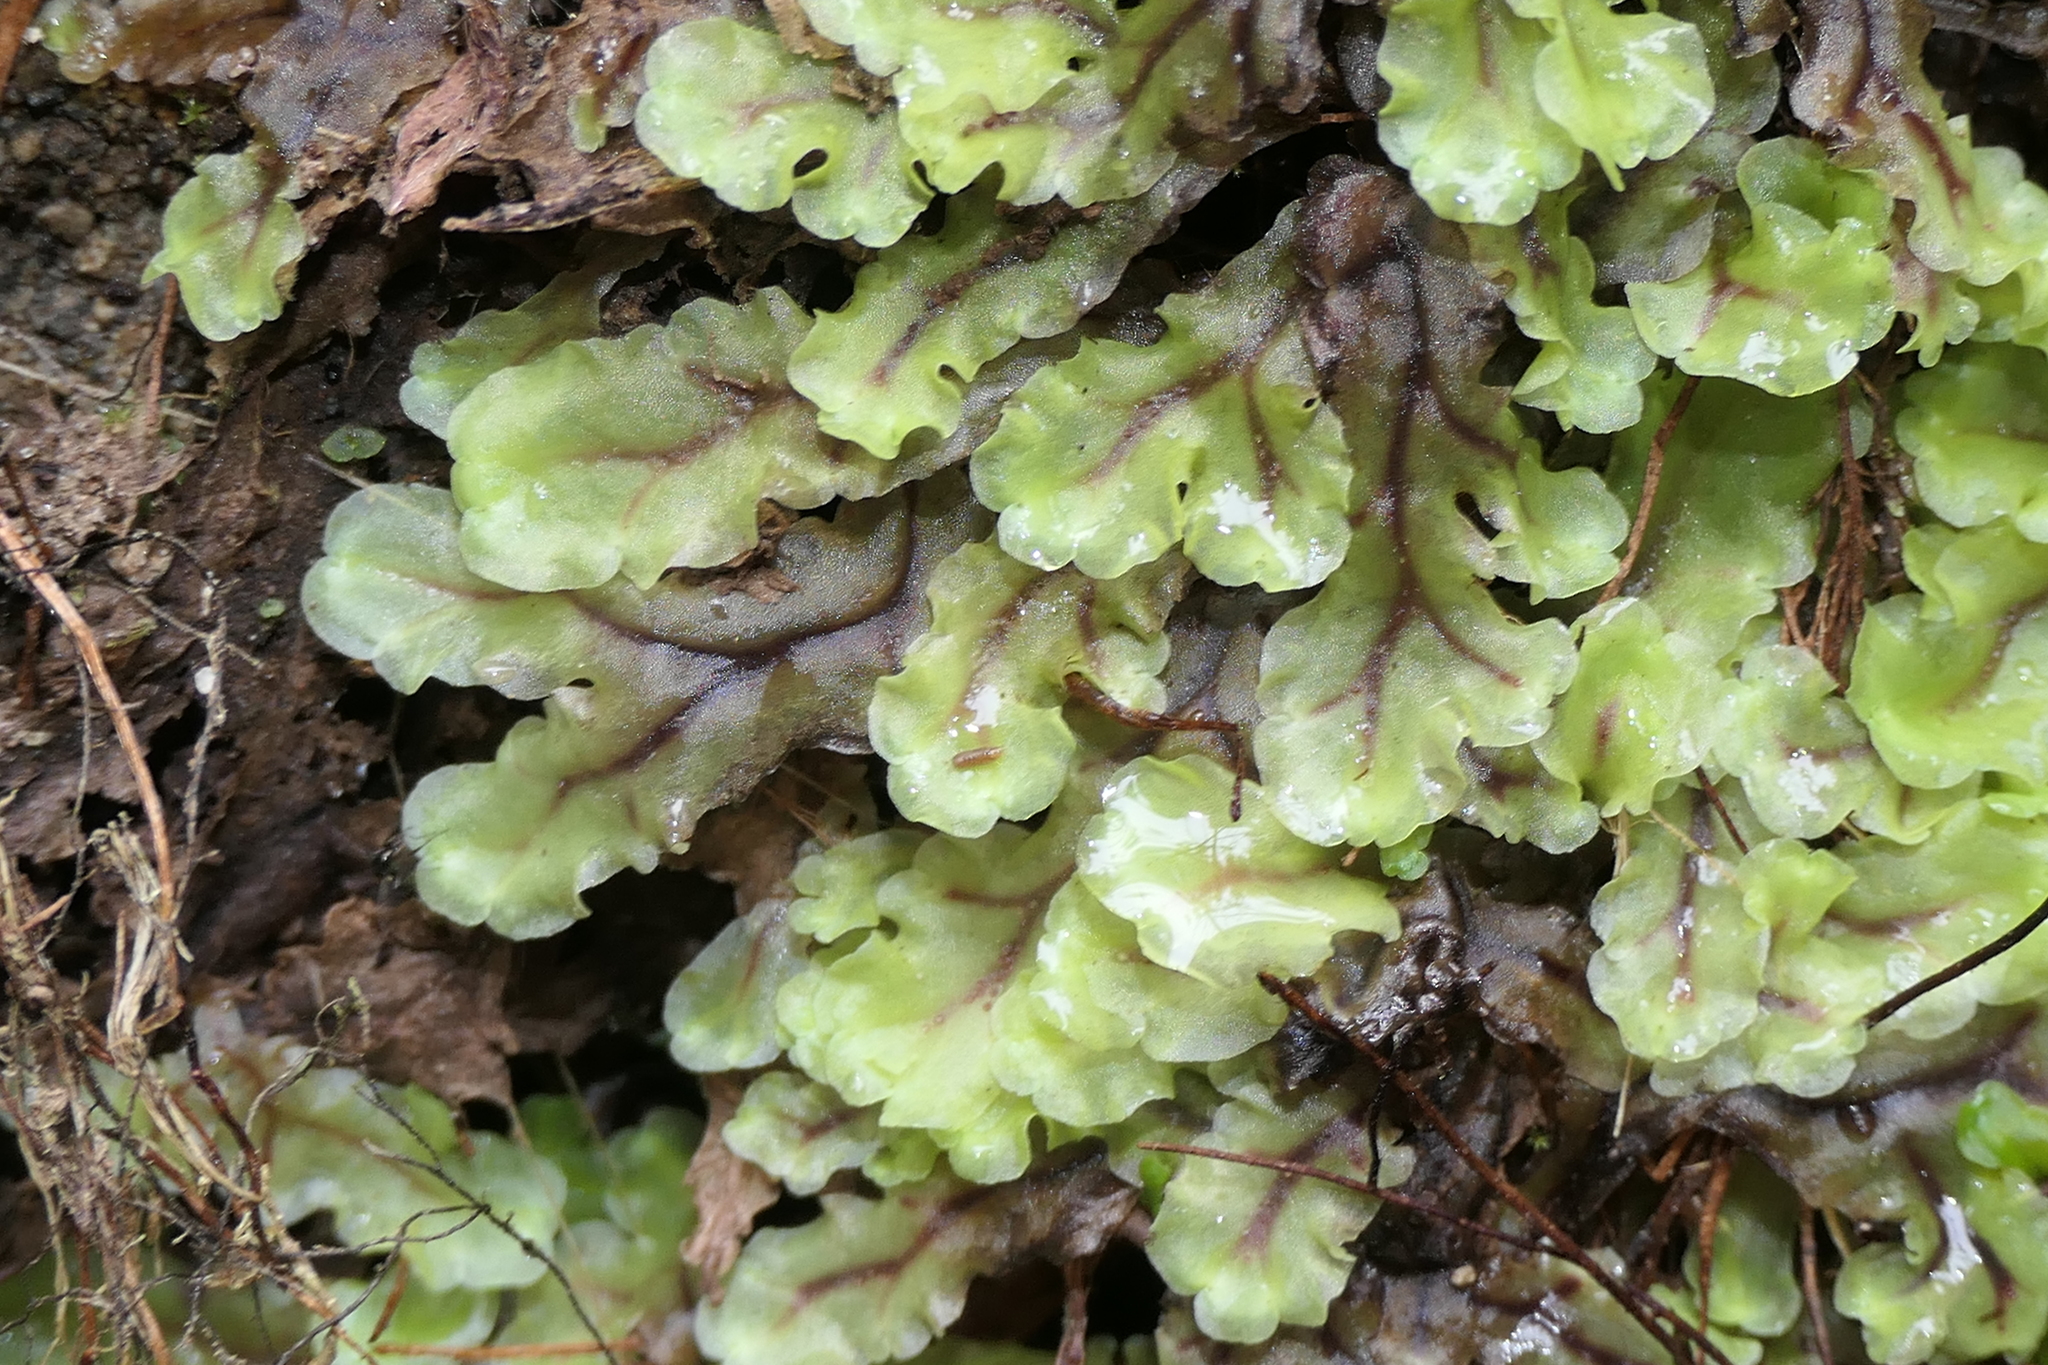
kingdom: Plantae
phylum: Marchantiophyta
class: Jungermanniopsida
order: Pelliales
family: Pelliaceae
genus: Pellia
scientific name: Pellia neesiana
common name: Nees  pellia
